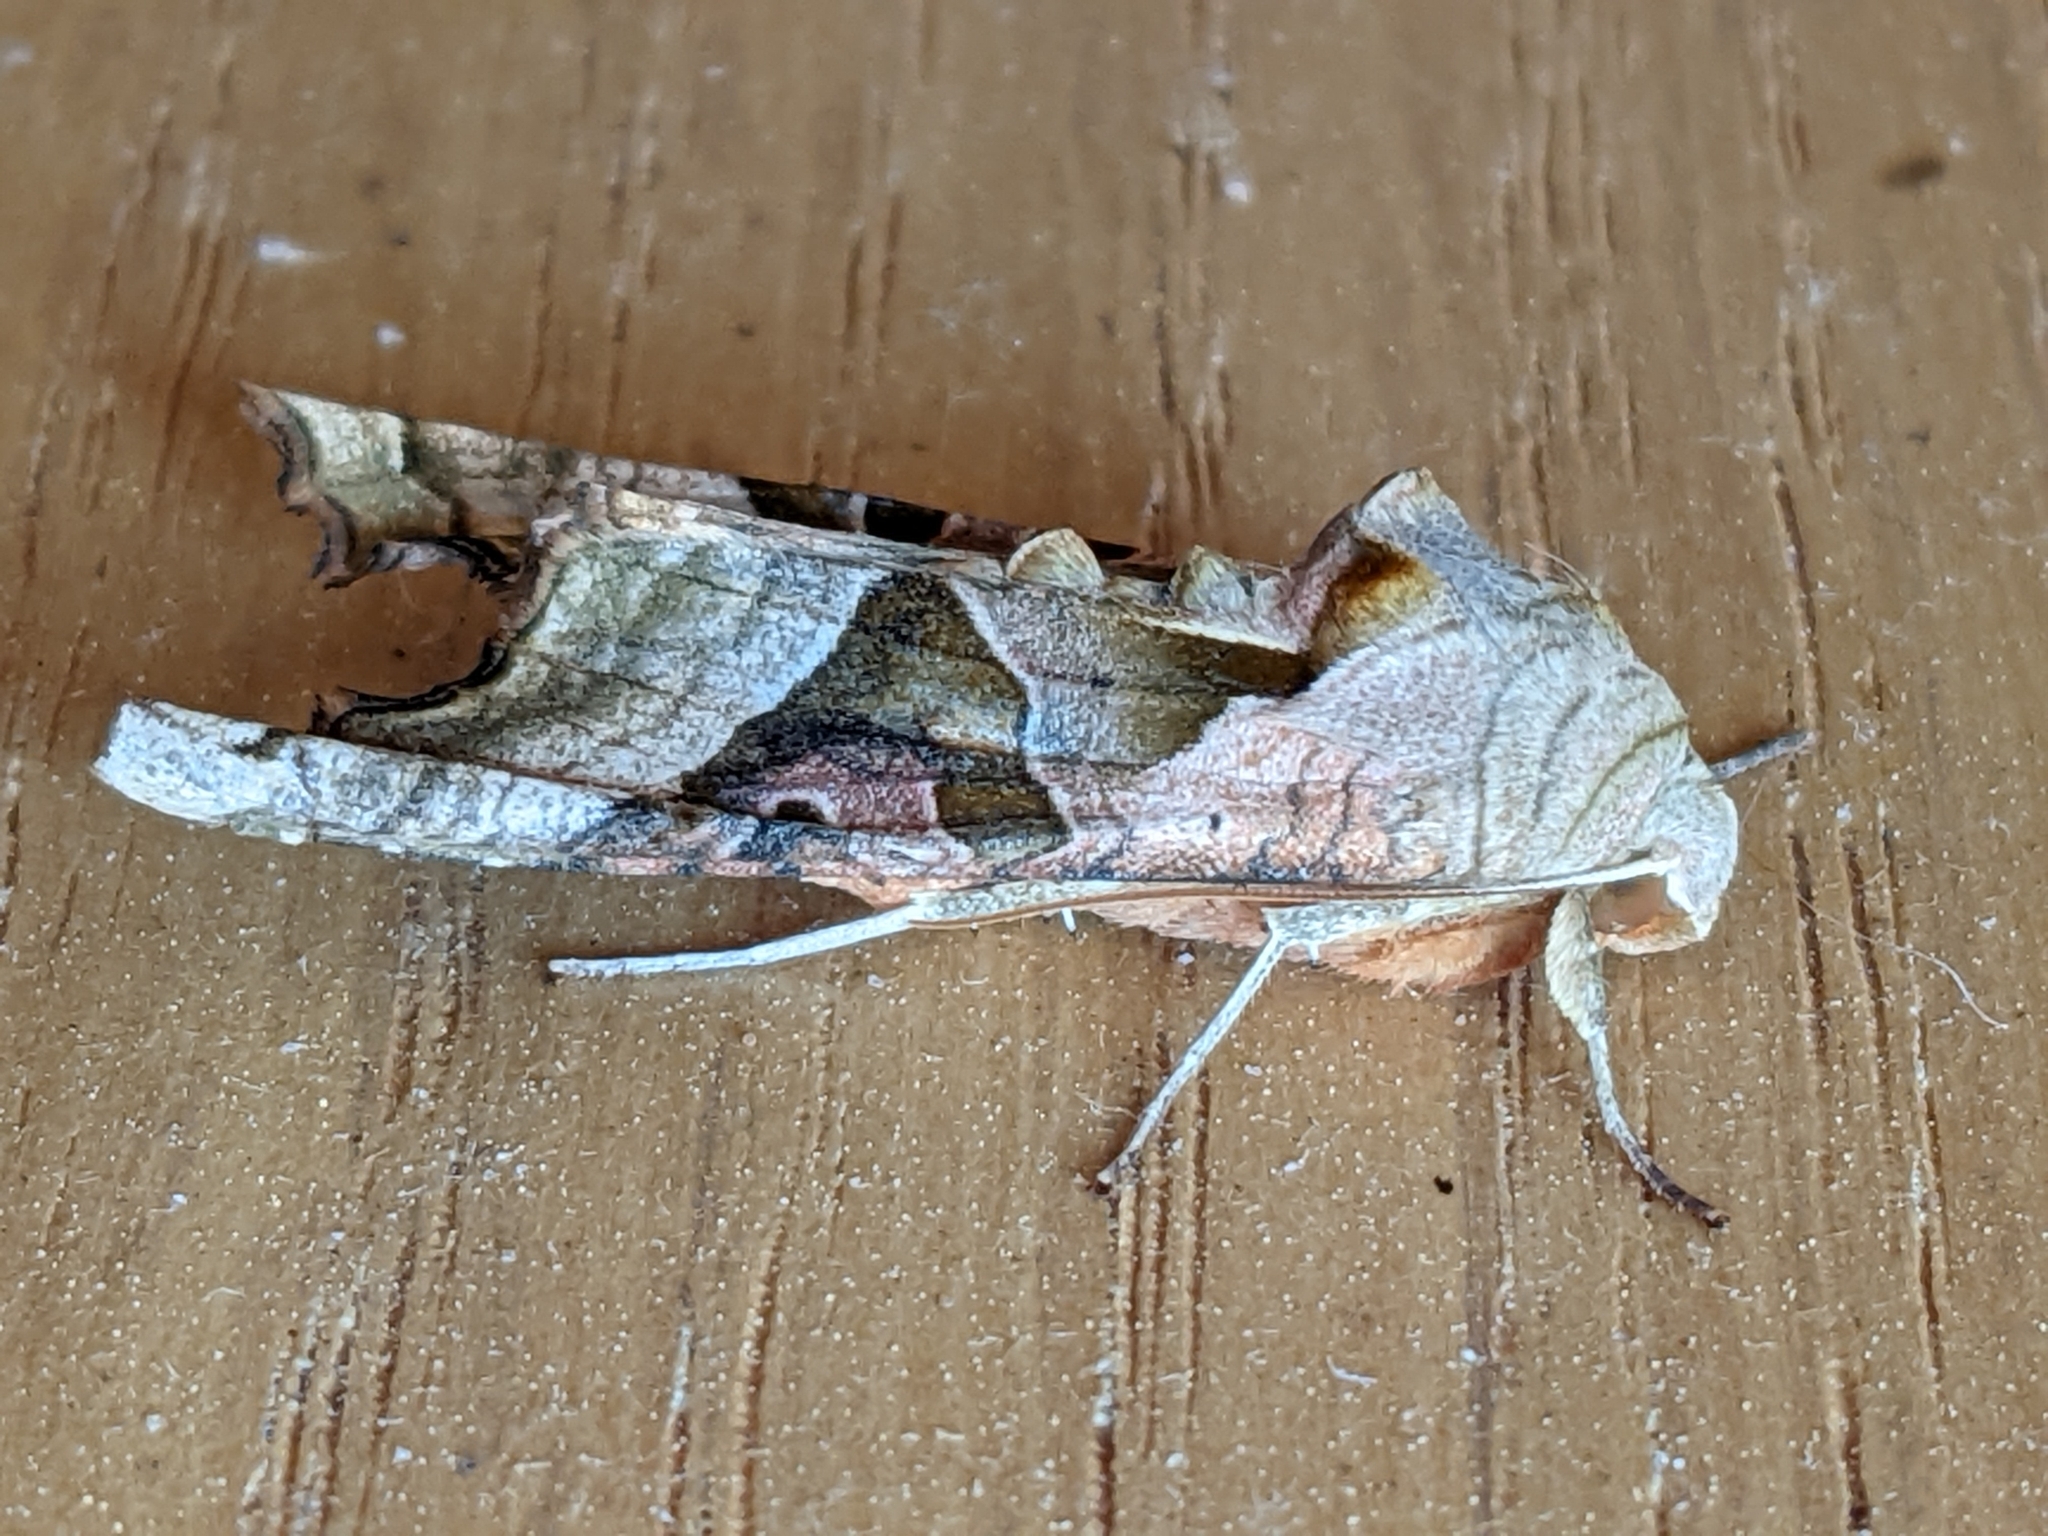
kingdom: Animalia
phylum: Arthropoda
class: Insecta
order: Lepidoptera
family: Noctuidae
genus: Phlogophora
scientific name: Phlogophora meticulosa
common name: Angle shades
